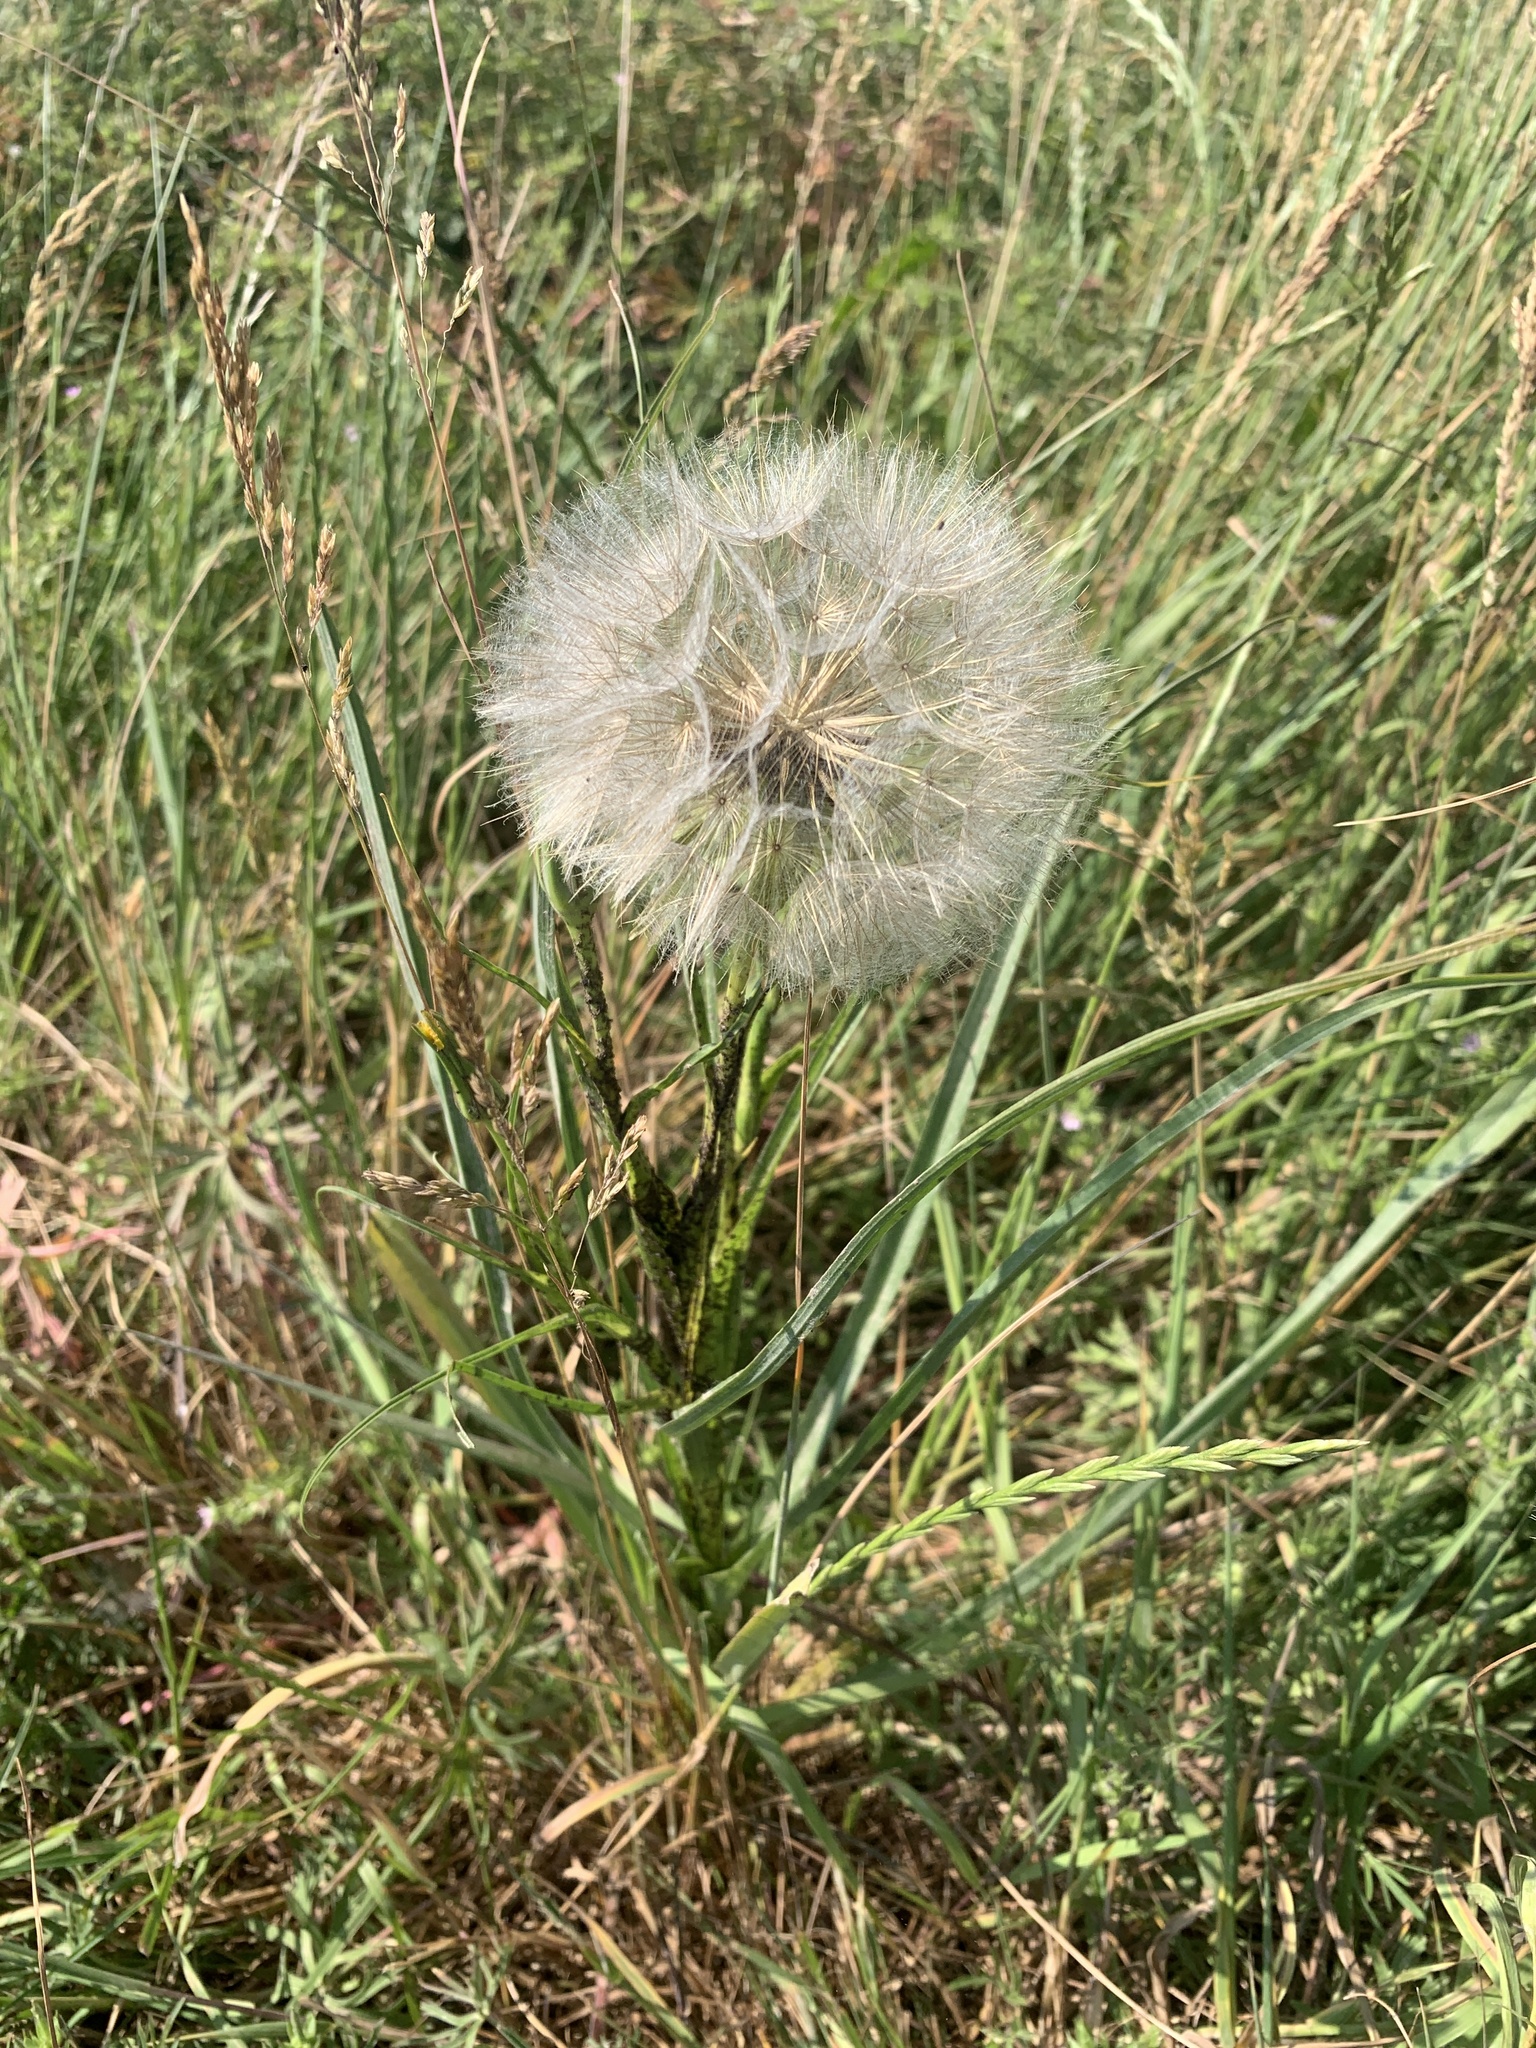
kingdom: Plantae
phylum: Tracheophyta
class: Magnoliopsida
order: Asterales
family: Asteraceae
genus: Tragopogon
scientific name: Tragopogon pratensis
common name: Goat's-beard
